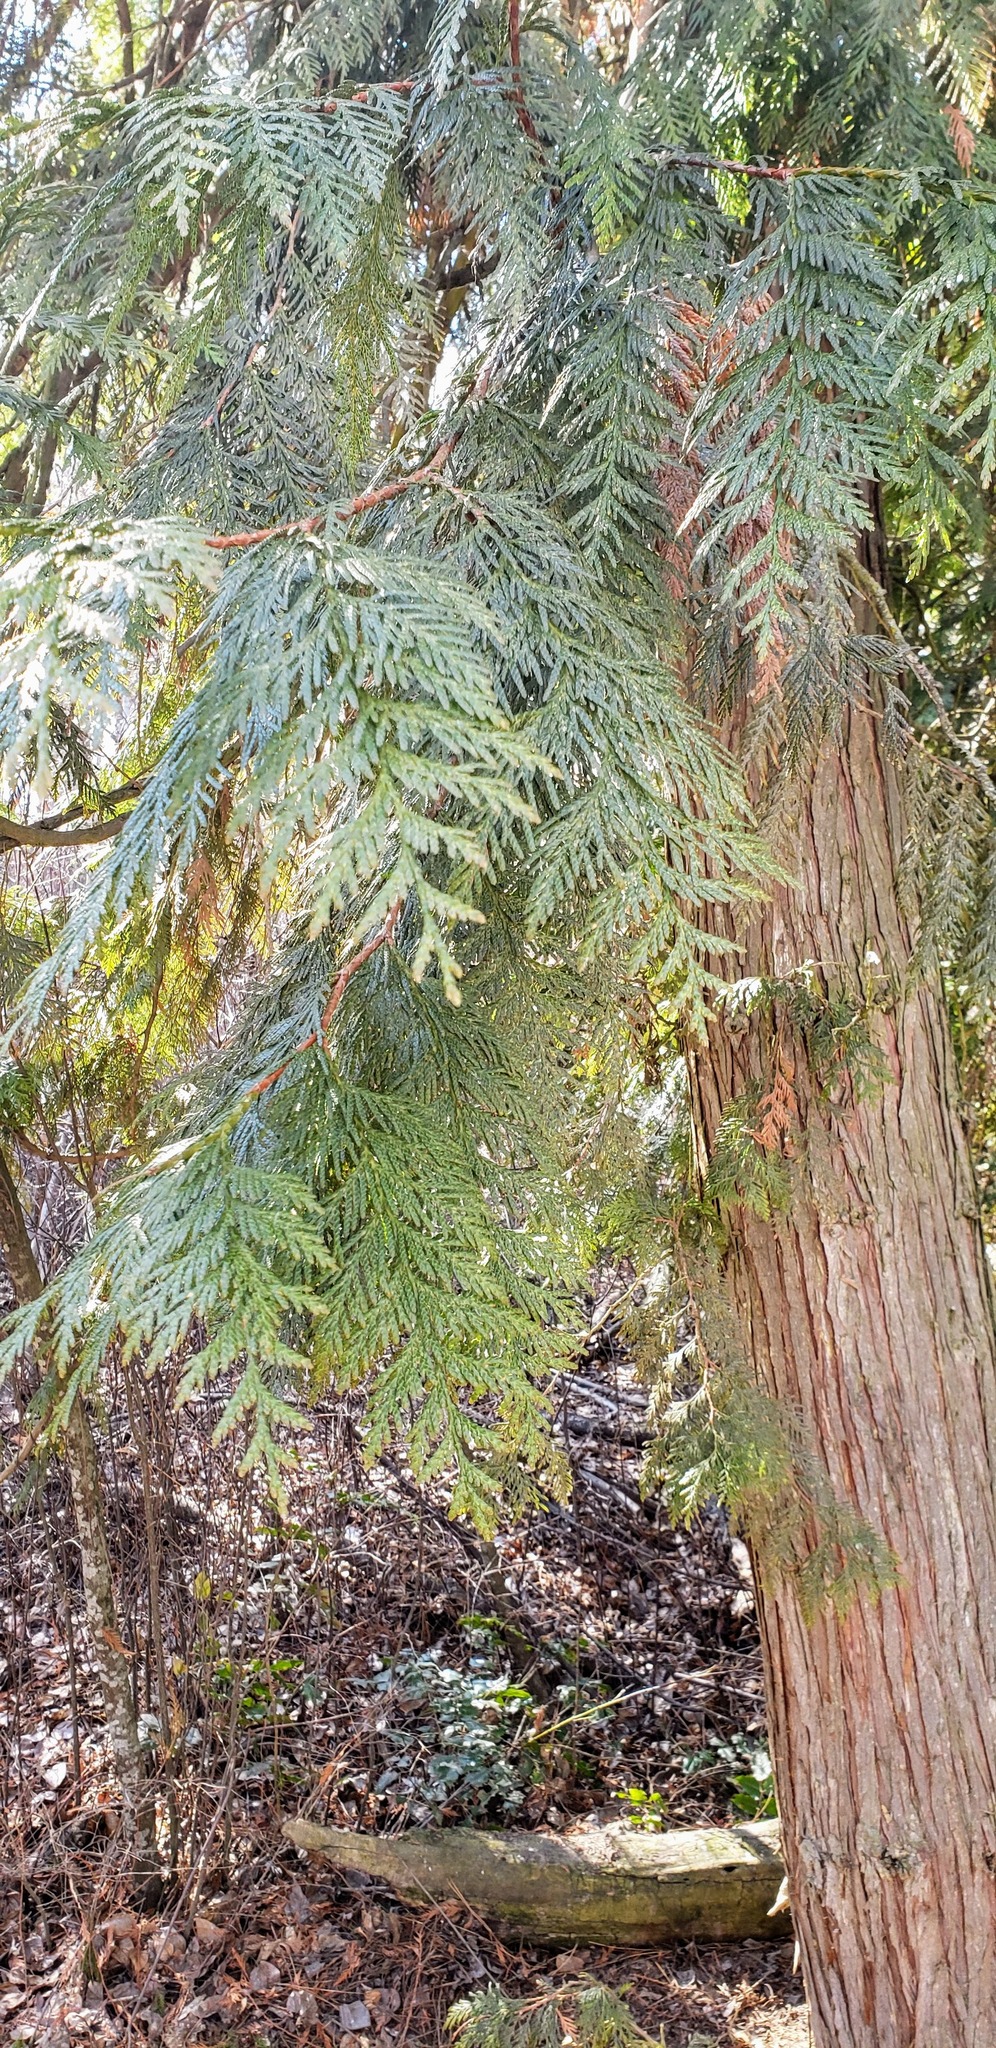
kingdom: Plantae
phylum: Tracheophyta
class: Pinopsida
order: Pinales
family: Cupressaceae
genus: Thuja
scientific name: Thuja plicata
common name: Western red-cedar
